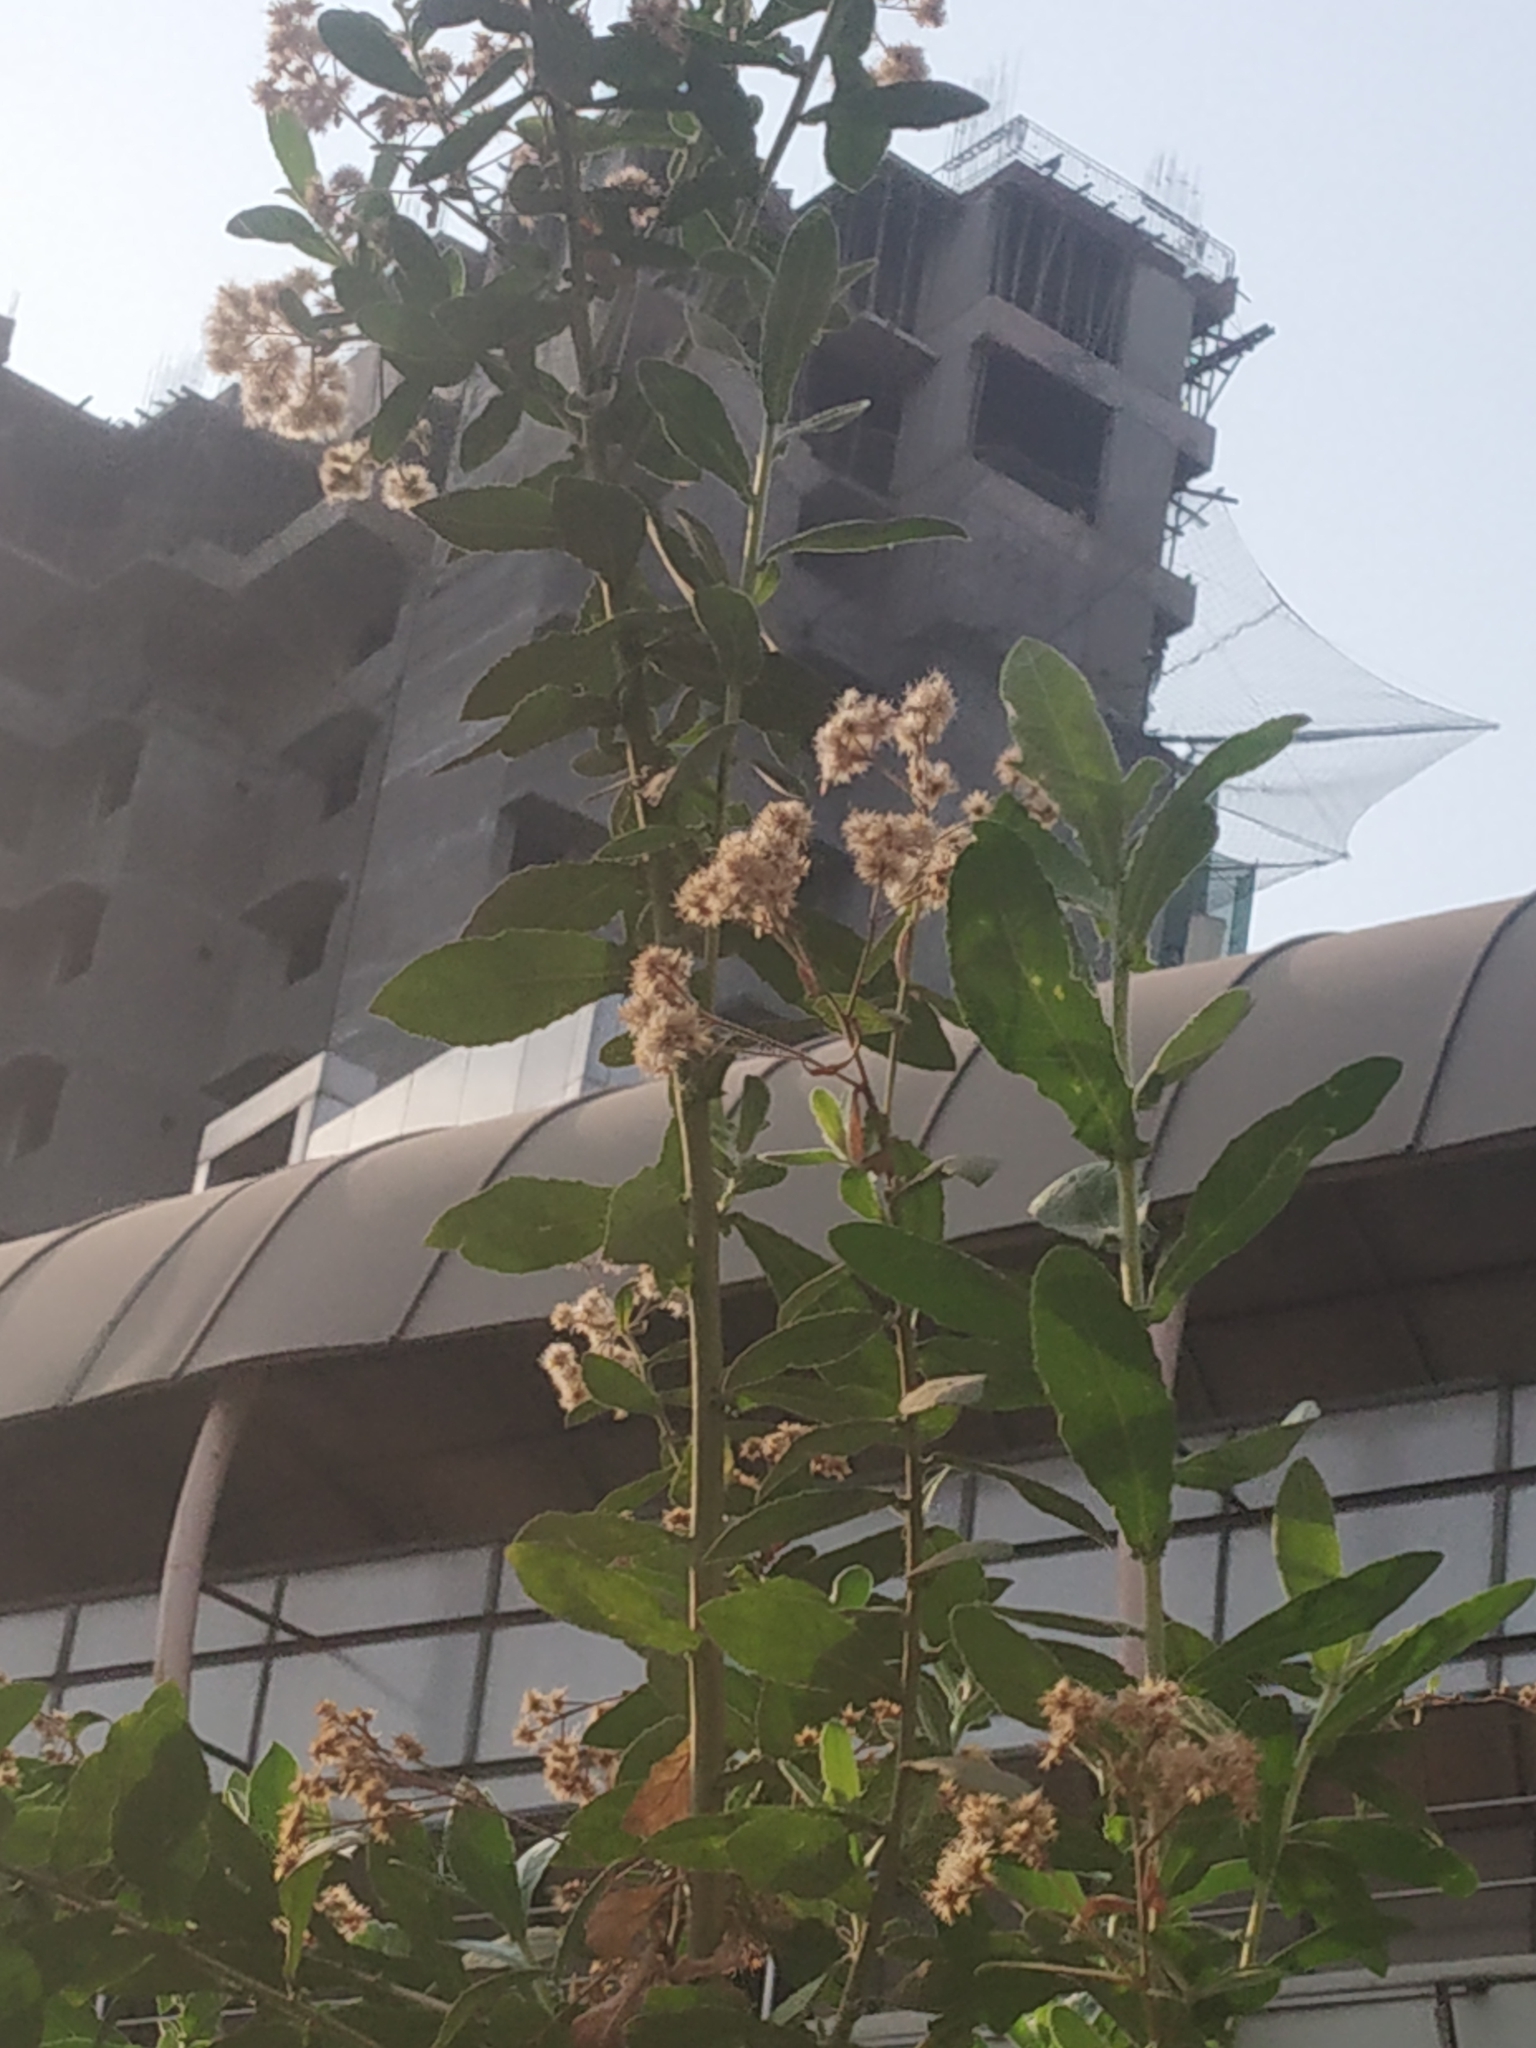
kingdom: Plantae
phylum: Tracheophyta
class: Magnoliopsida
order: Asterales
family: Asteraceae
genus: Pluchea
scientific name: Pluchea ovalis
